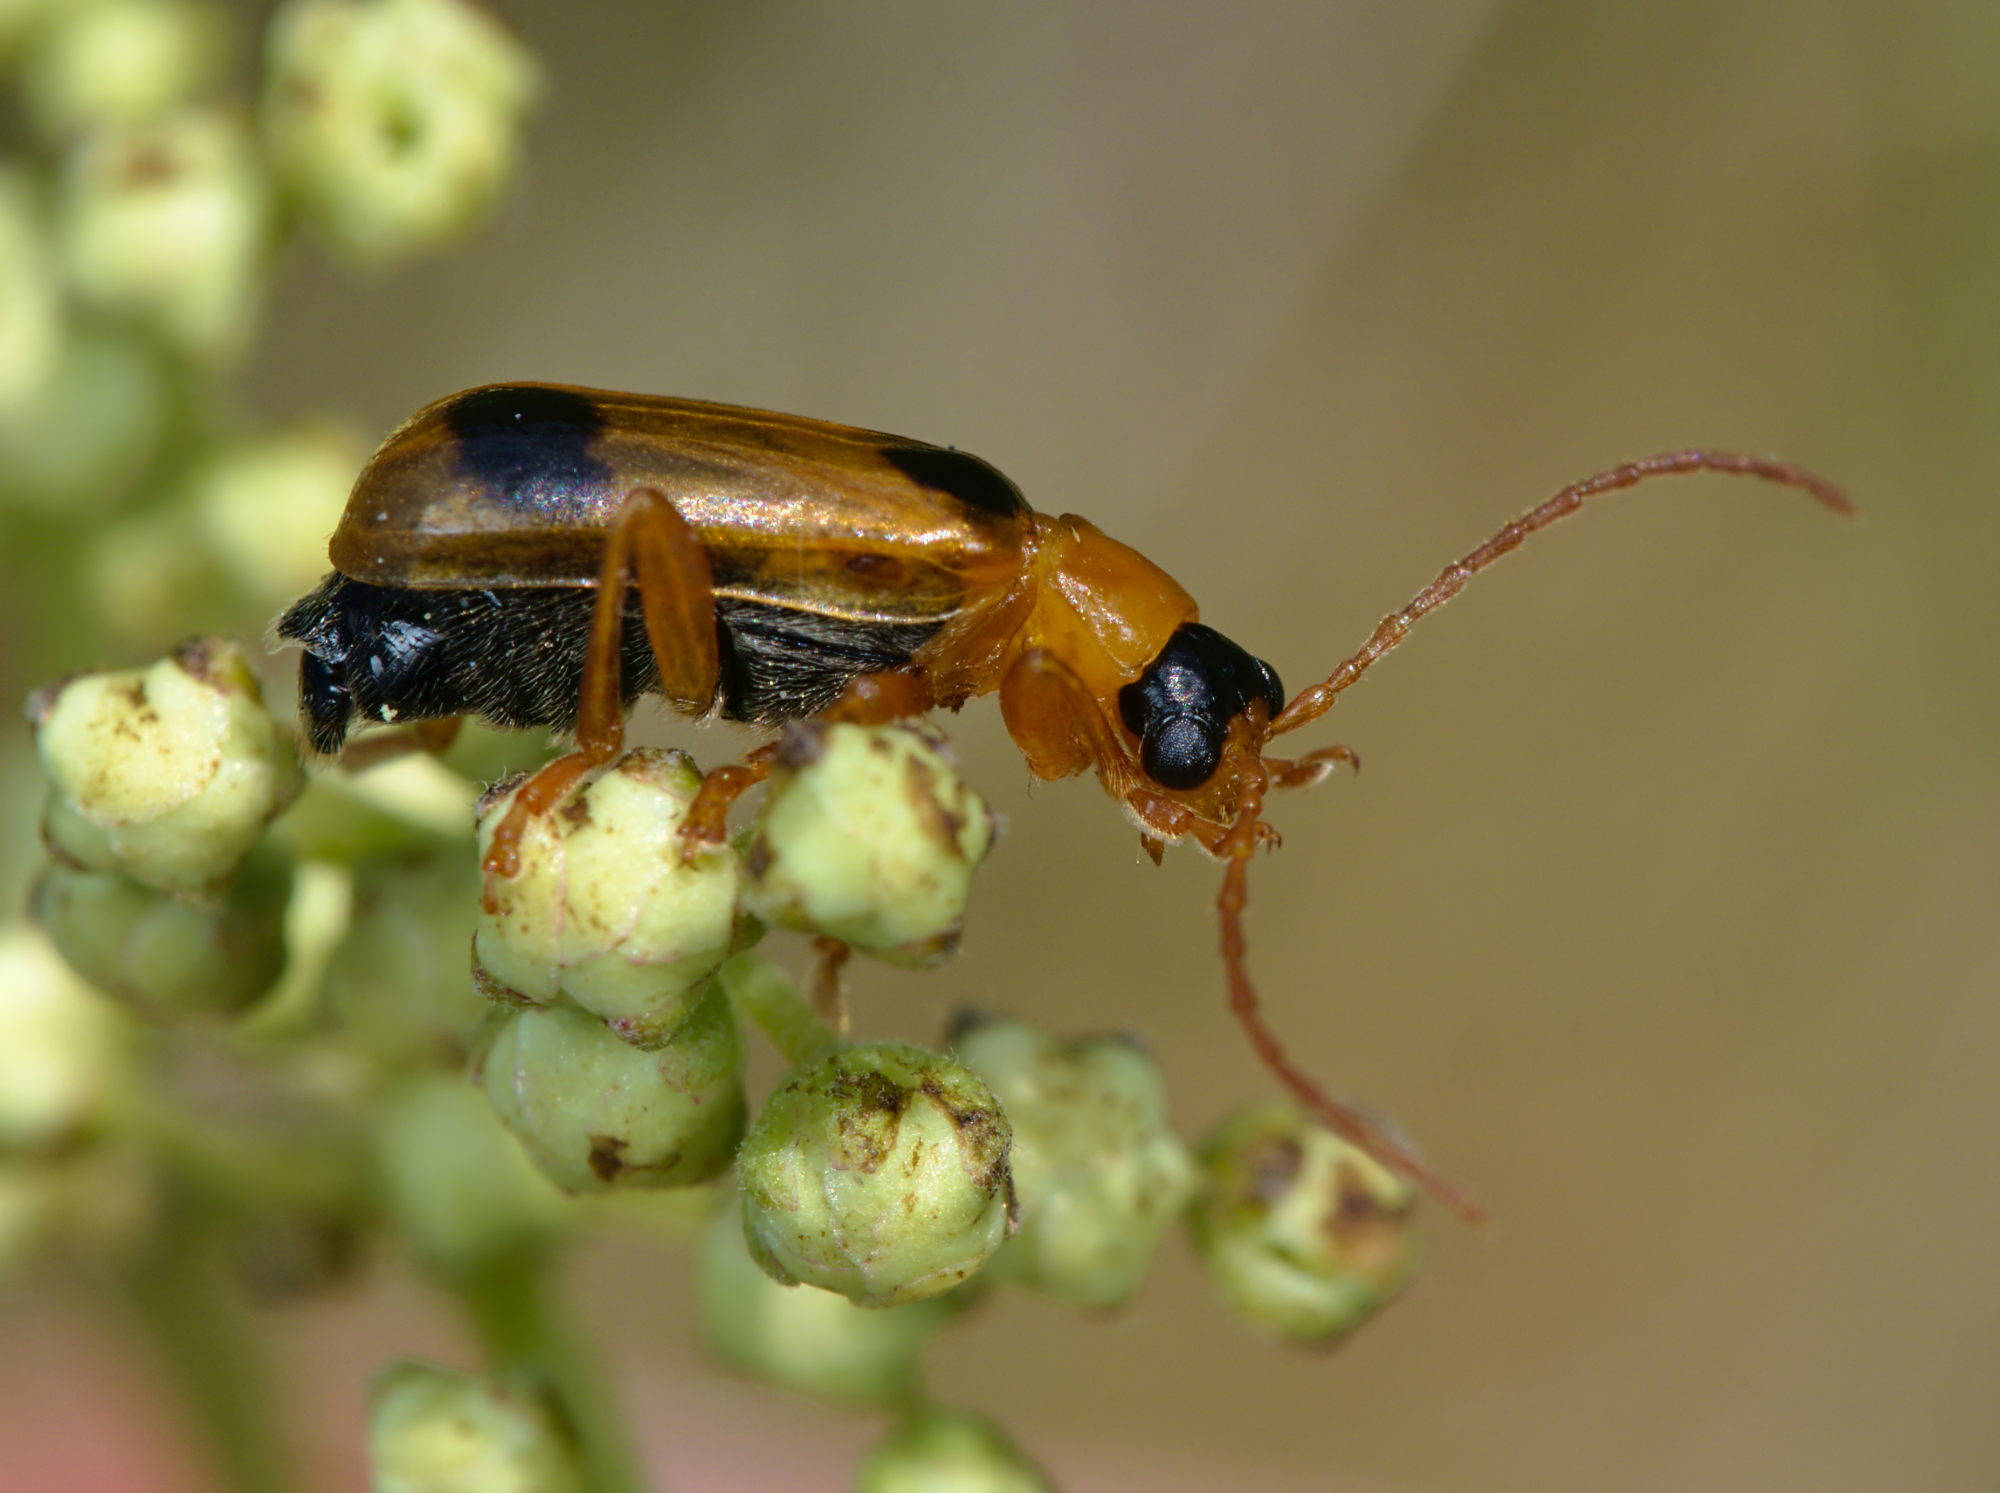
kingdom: Animalia
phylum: Arthropoda
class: Insecta
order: Coleoptera
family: Chrysomelidae
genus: Phyllobrotica
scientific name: Phyllobrotica quadrimaculata
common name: Skullcap leaf beetle
